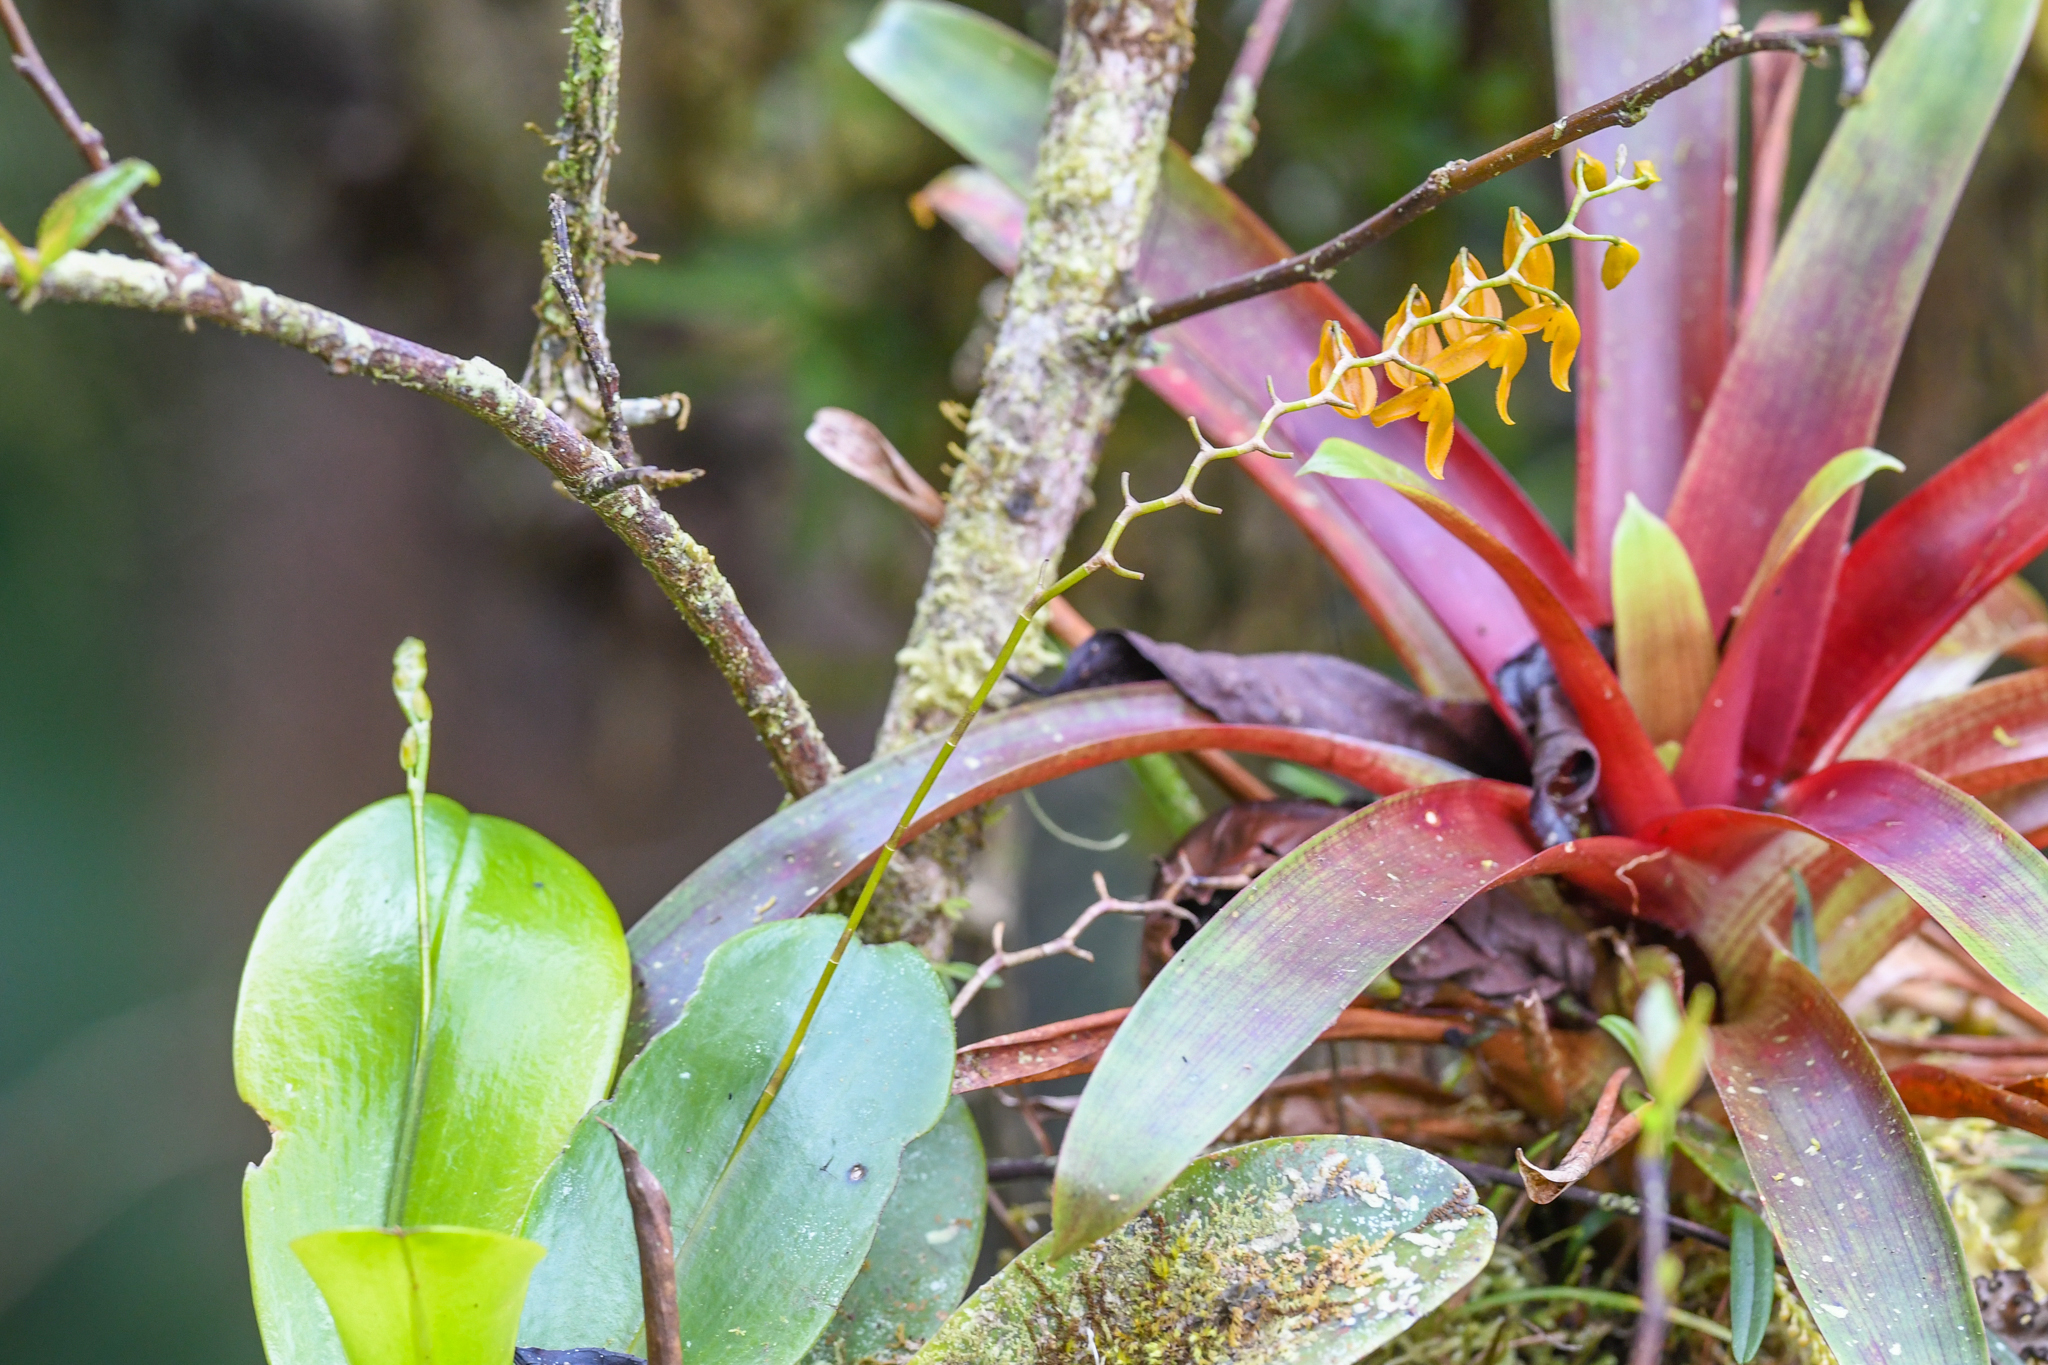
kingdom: Plantae
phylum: Tracheophyta
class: Liliopsida
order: Asparagales
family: Orchidaceae
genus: Stelis
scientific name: Stelis immersa
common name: Sunken pleurothallis
